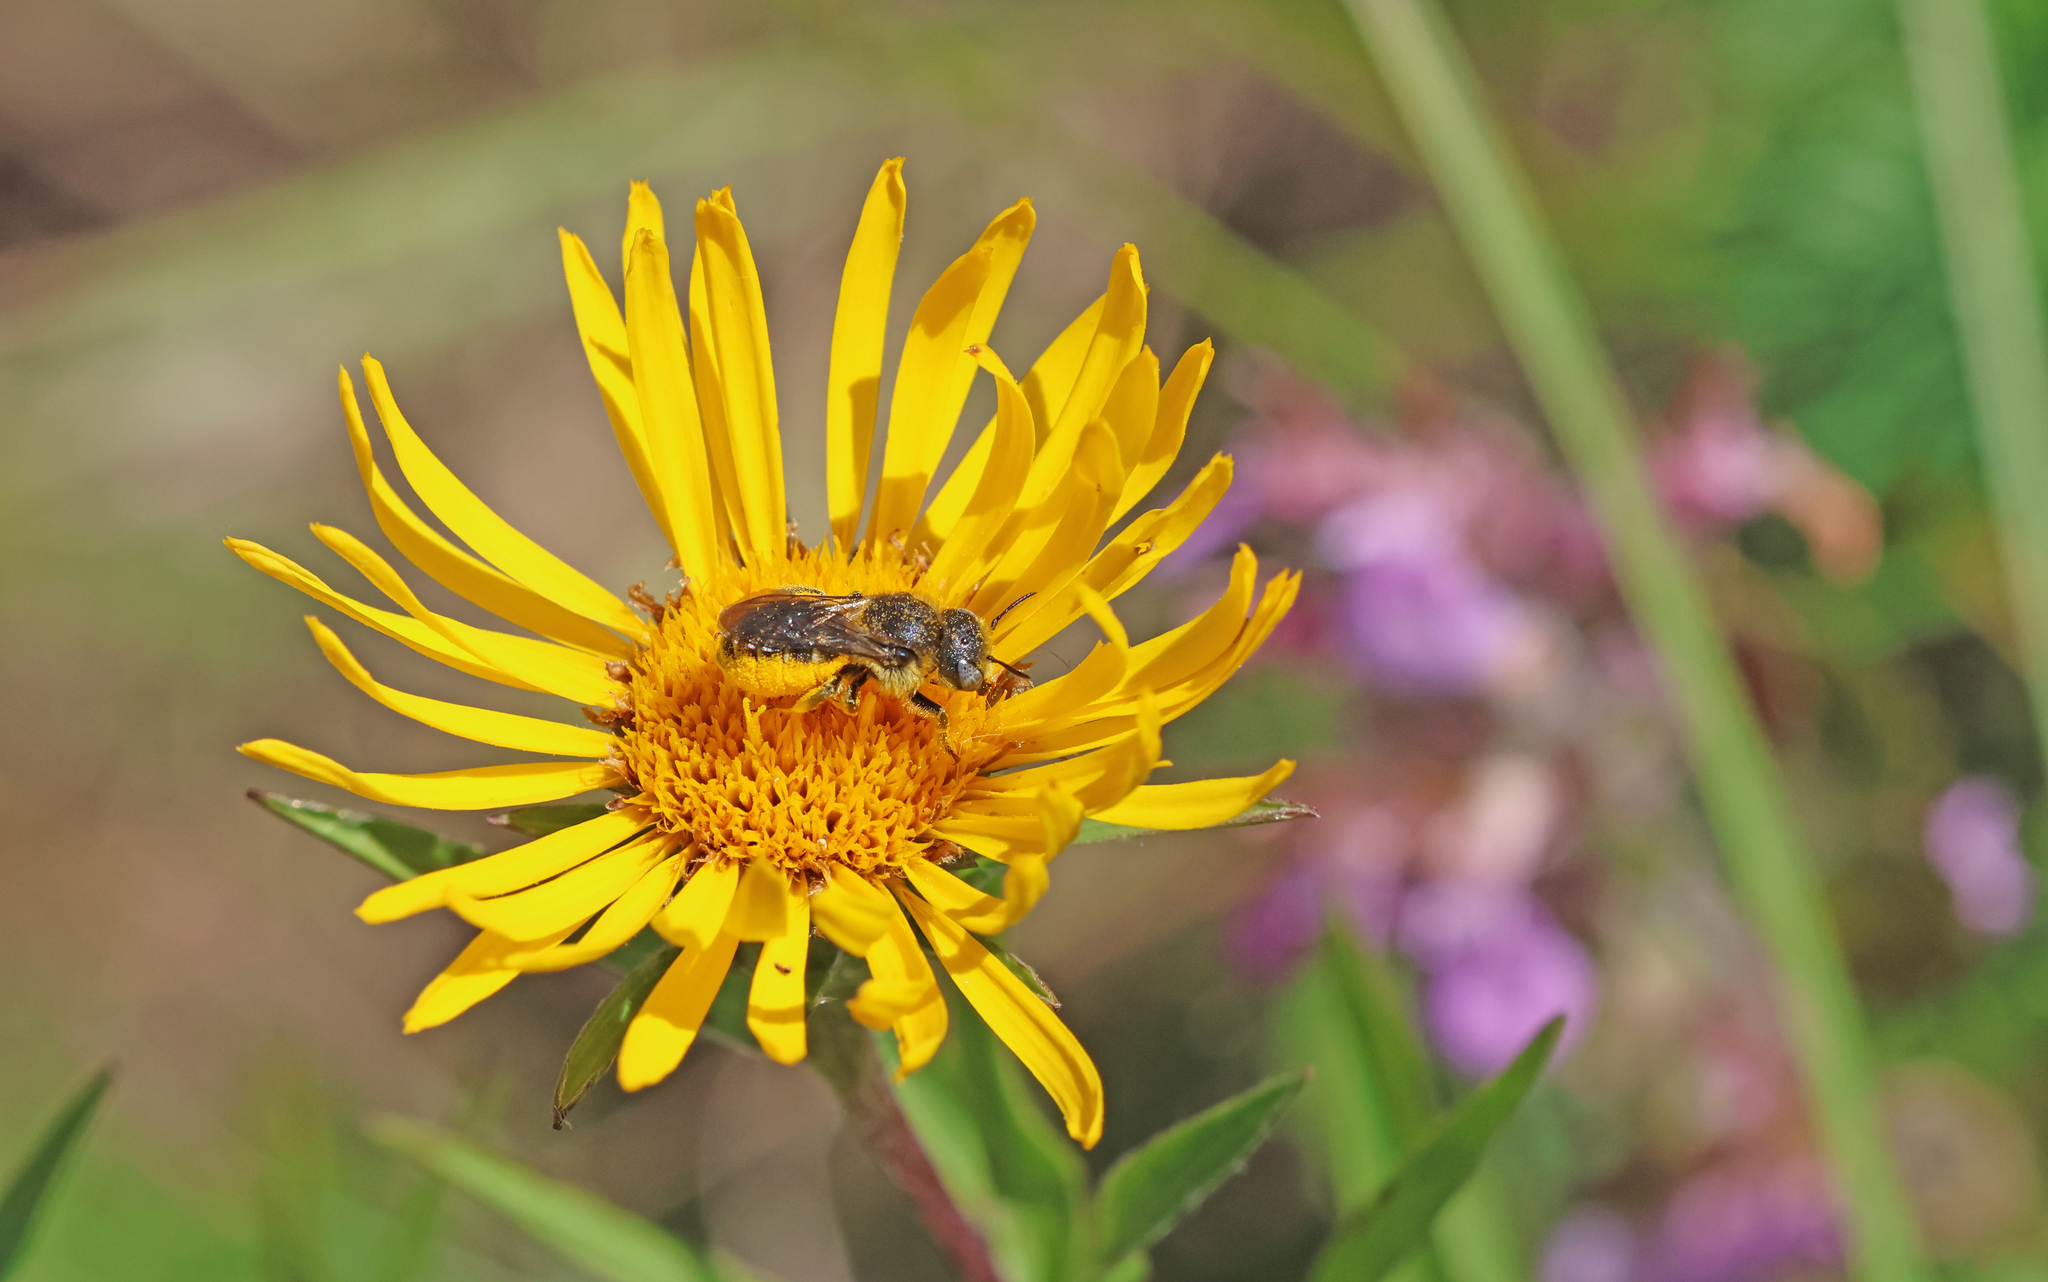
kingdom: Animalia
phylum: Arthropoda
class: Insecta
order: Hymenoptera
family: Megachilidae
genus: Osmia
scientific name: Osmia spinulosa
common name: Spined mason bee
